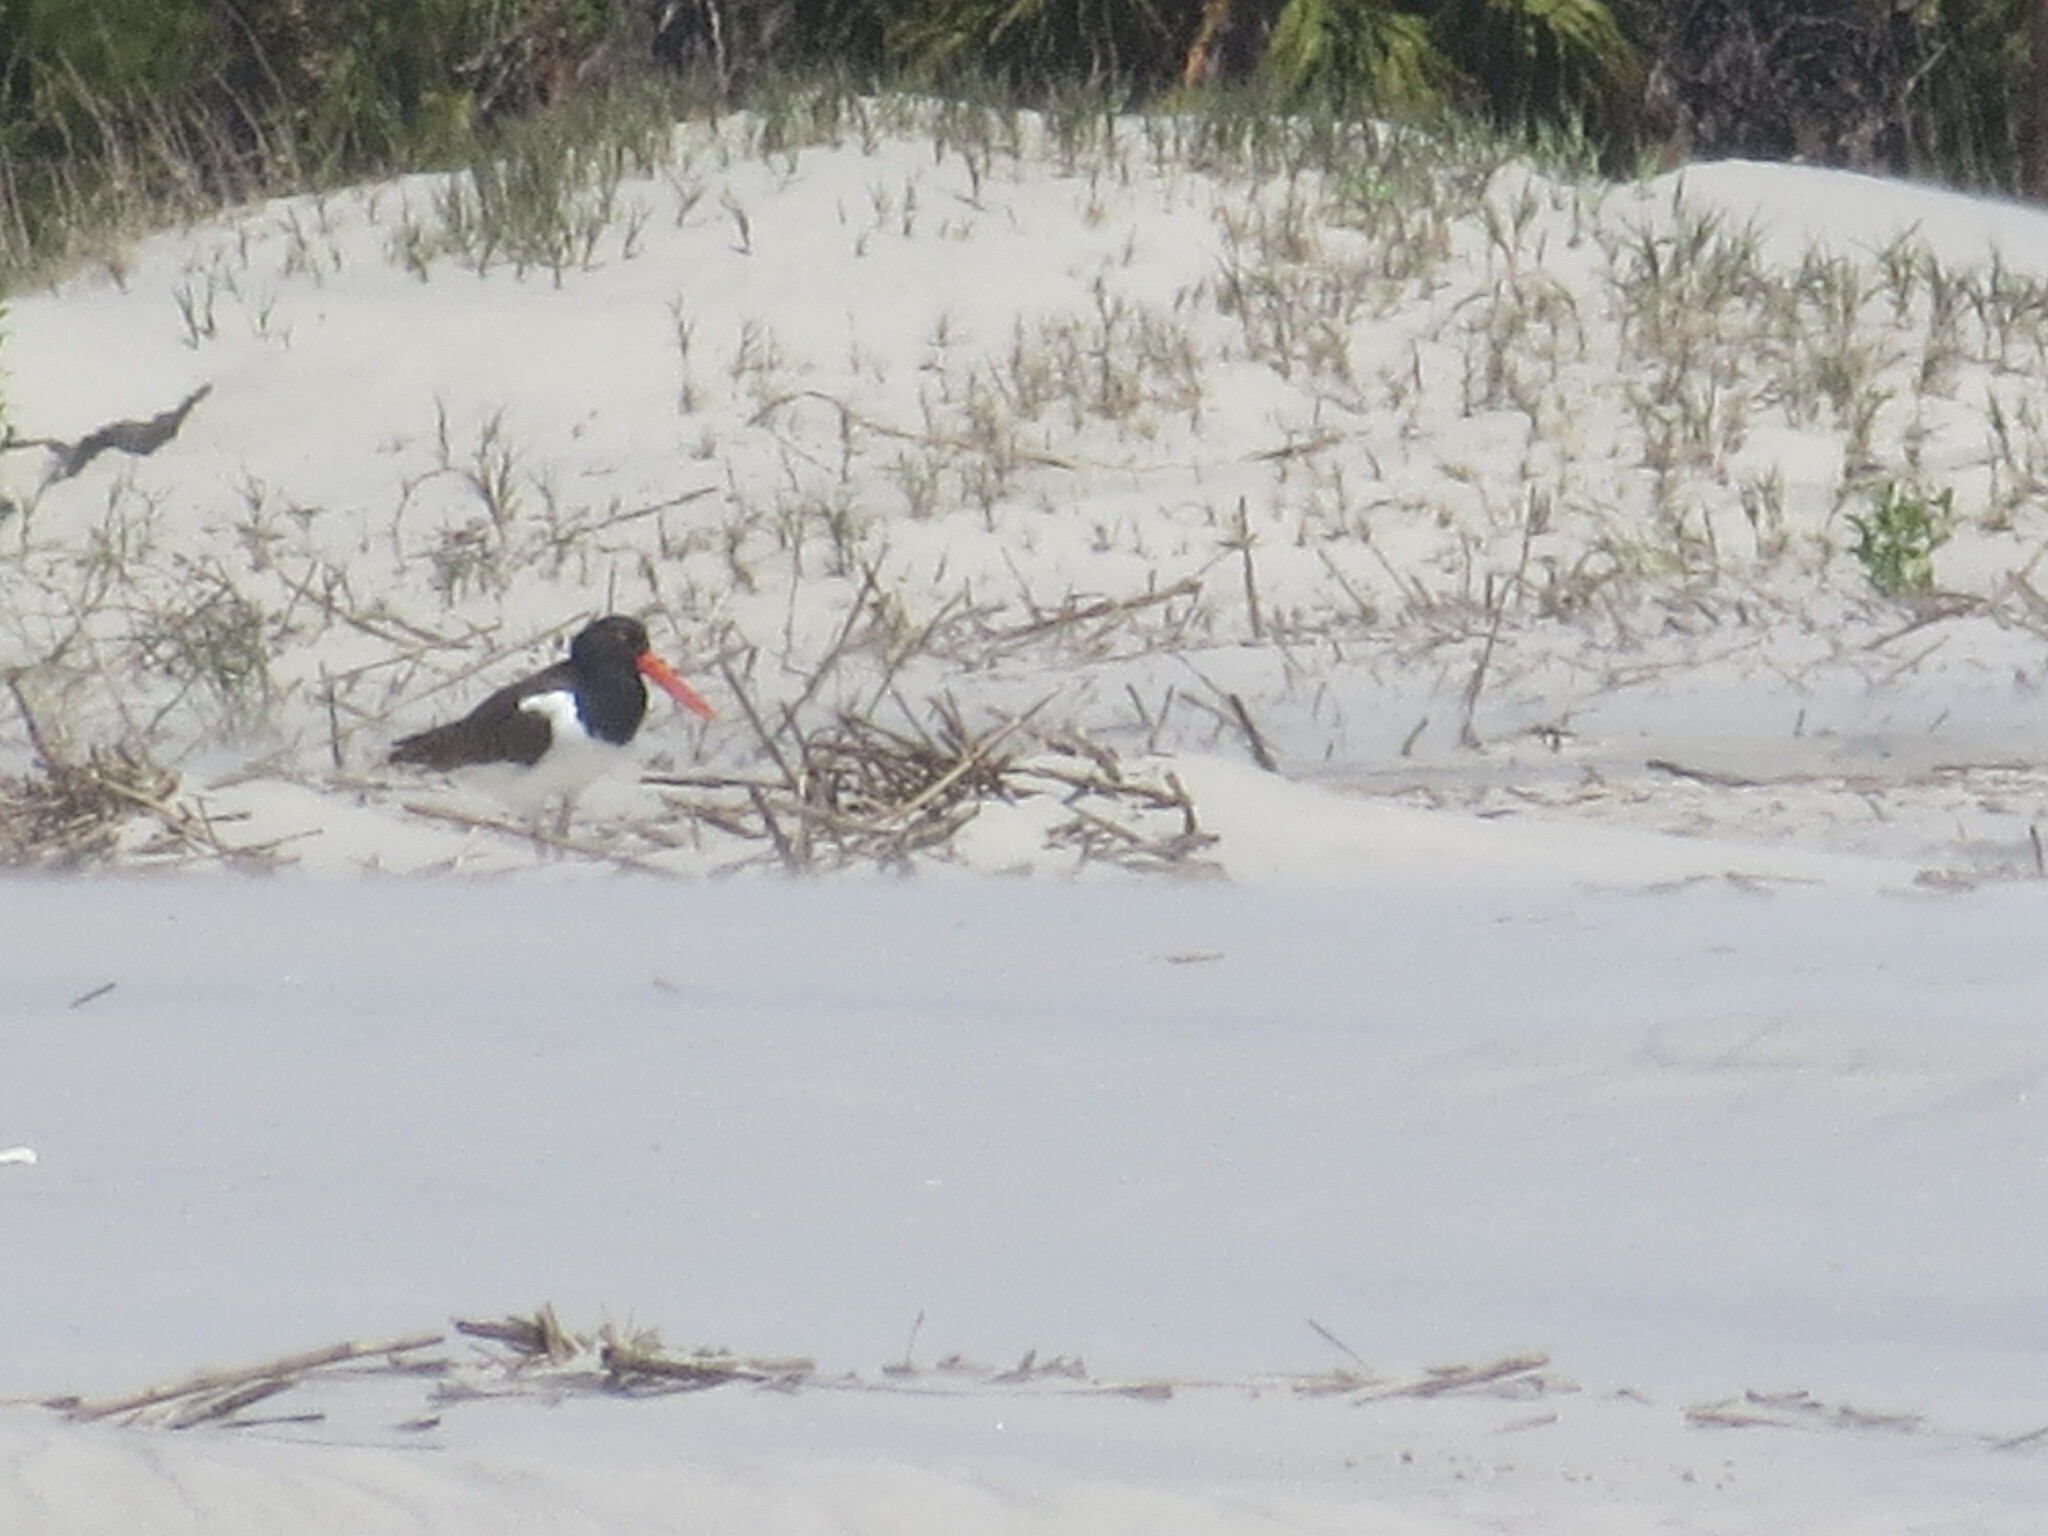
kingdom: Animalia
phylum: Chordata
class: Aves
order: Charadriiformes
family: Haematopodidae
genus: Haematopus
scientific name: Haematopus palliatus
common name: American oystercatcher
